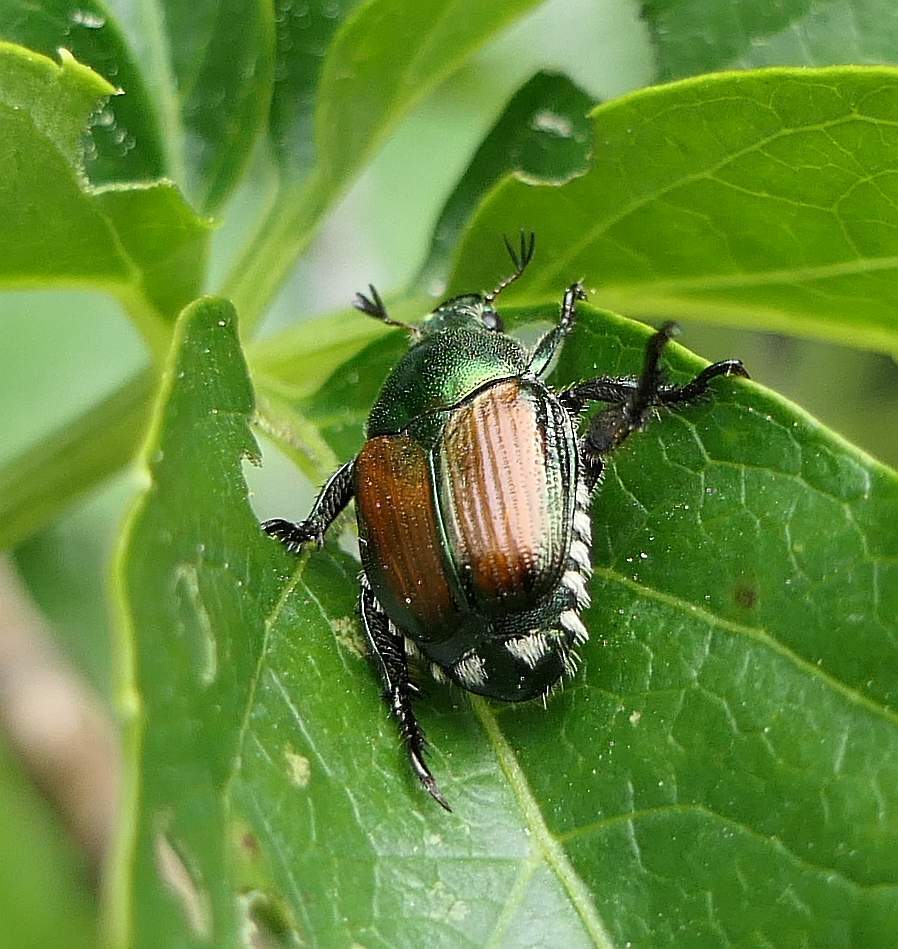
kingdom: Animalia
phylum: Arthropoda
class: Insecta
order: Coleoptera
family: Scarabaeidae
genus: Popillia
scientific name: Popillia japonica
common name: Japanese beetle
